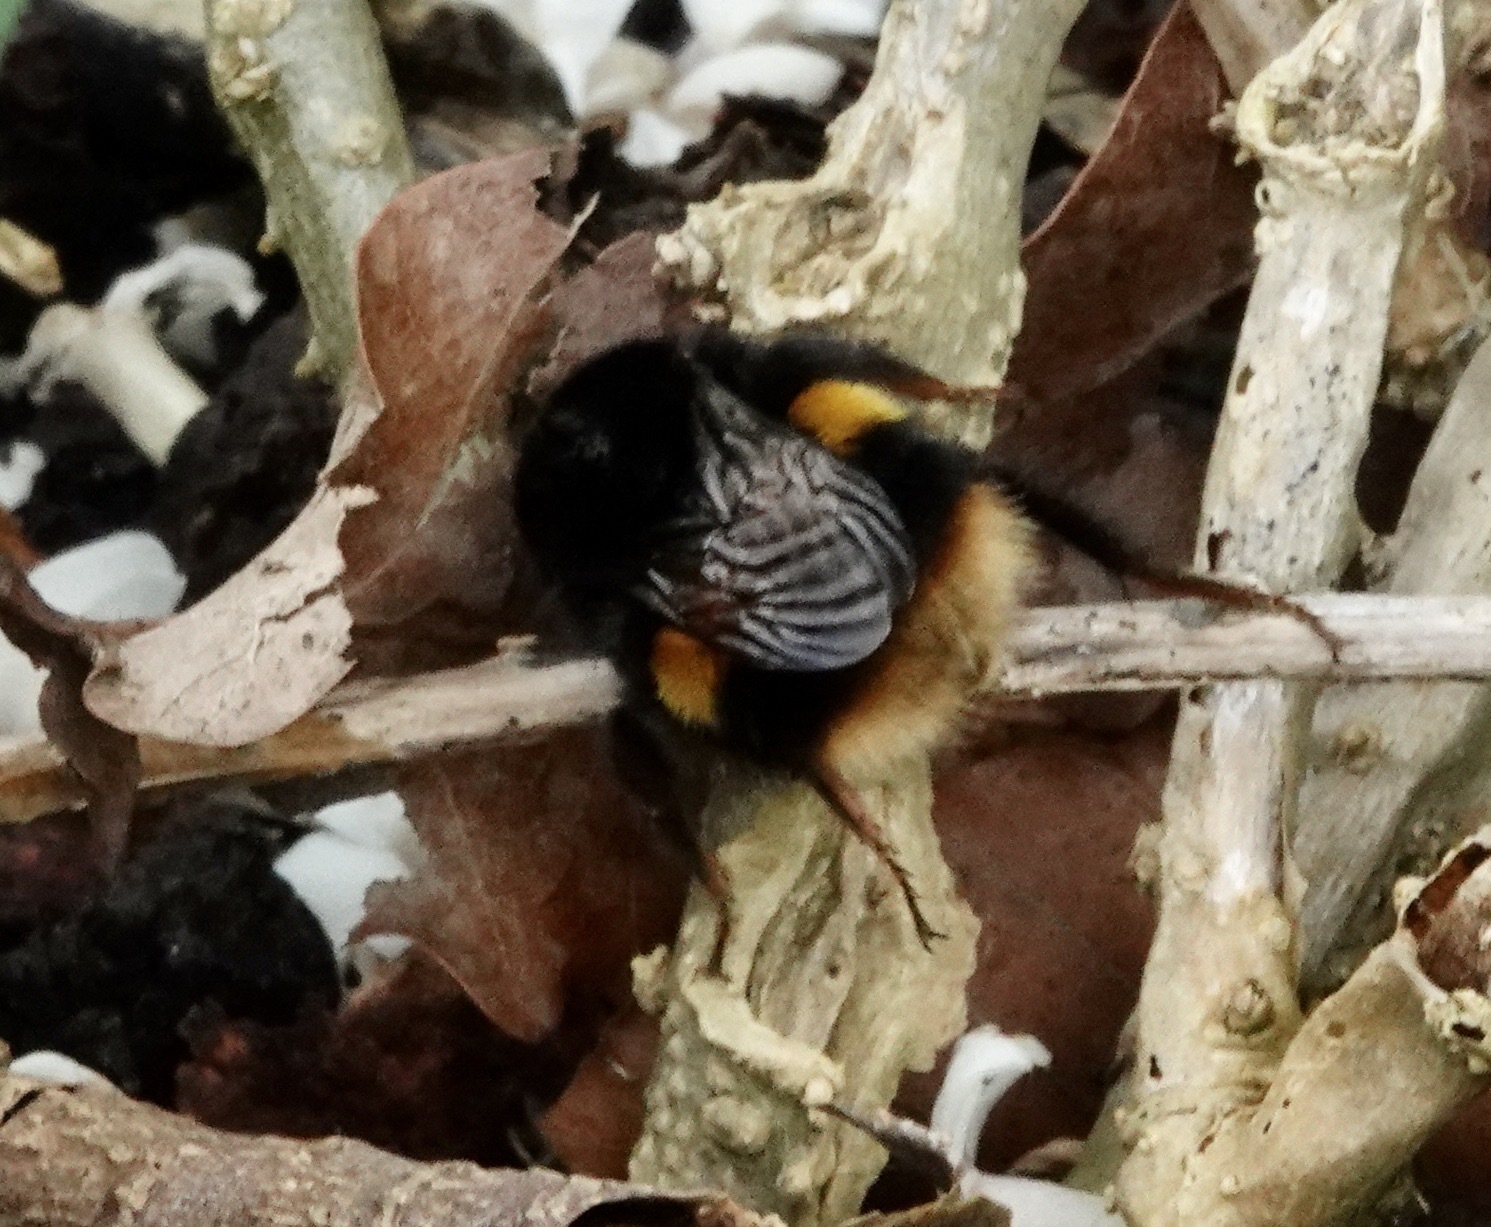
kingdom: Animalia
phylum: Arthropoda
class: Insecta
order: Hymenoptera
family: Apidae
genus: Bombus
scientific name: Bombus terrestris
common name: Buff-tailed bumblebee
